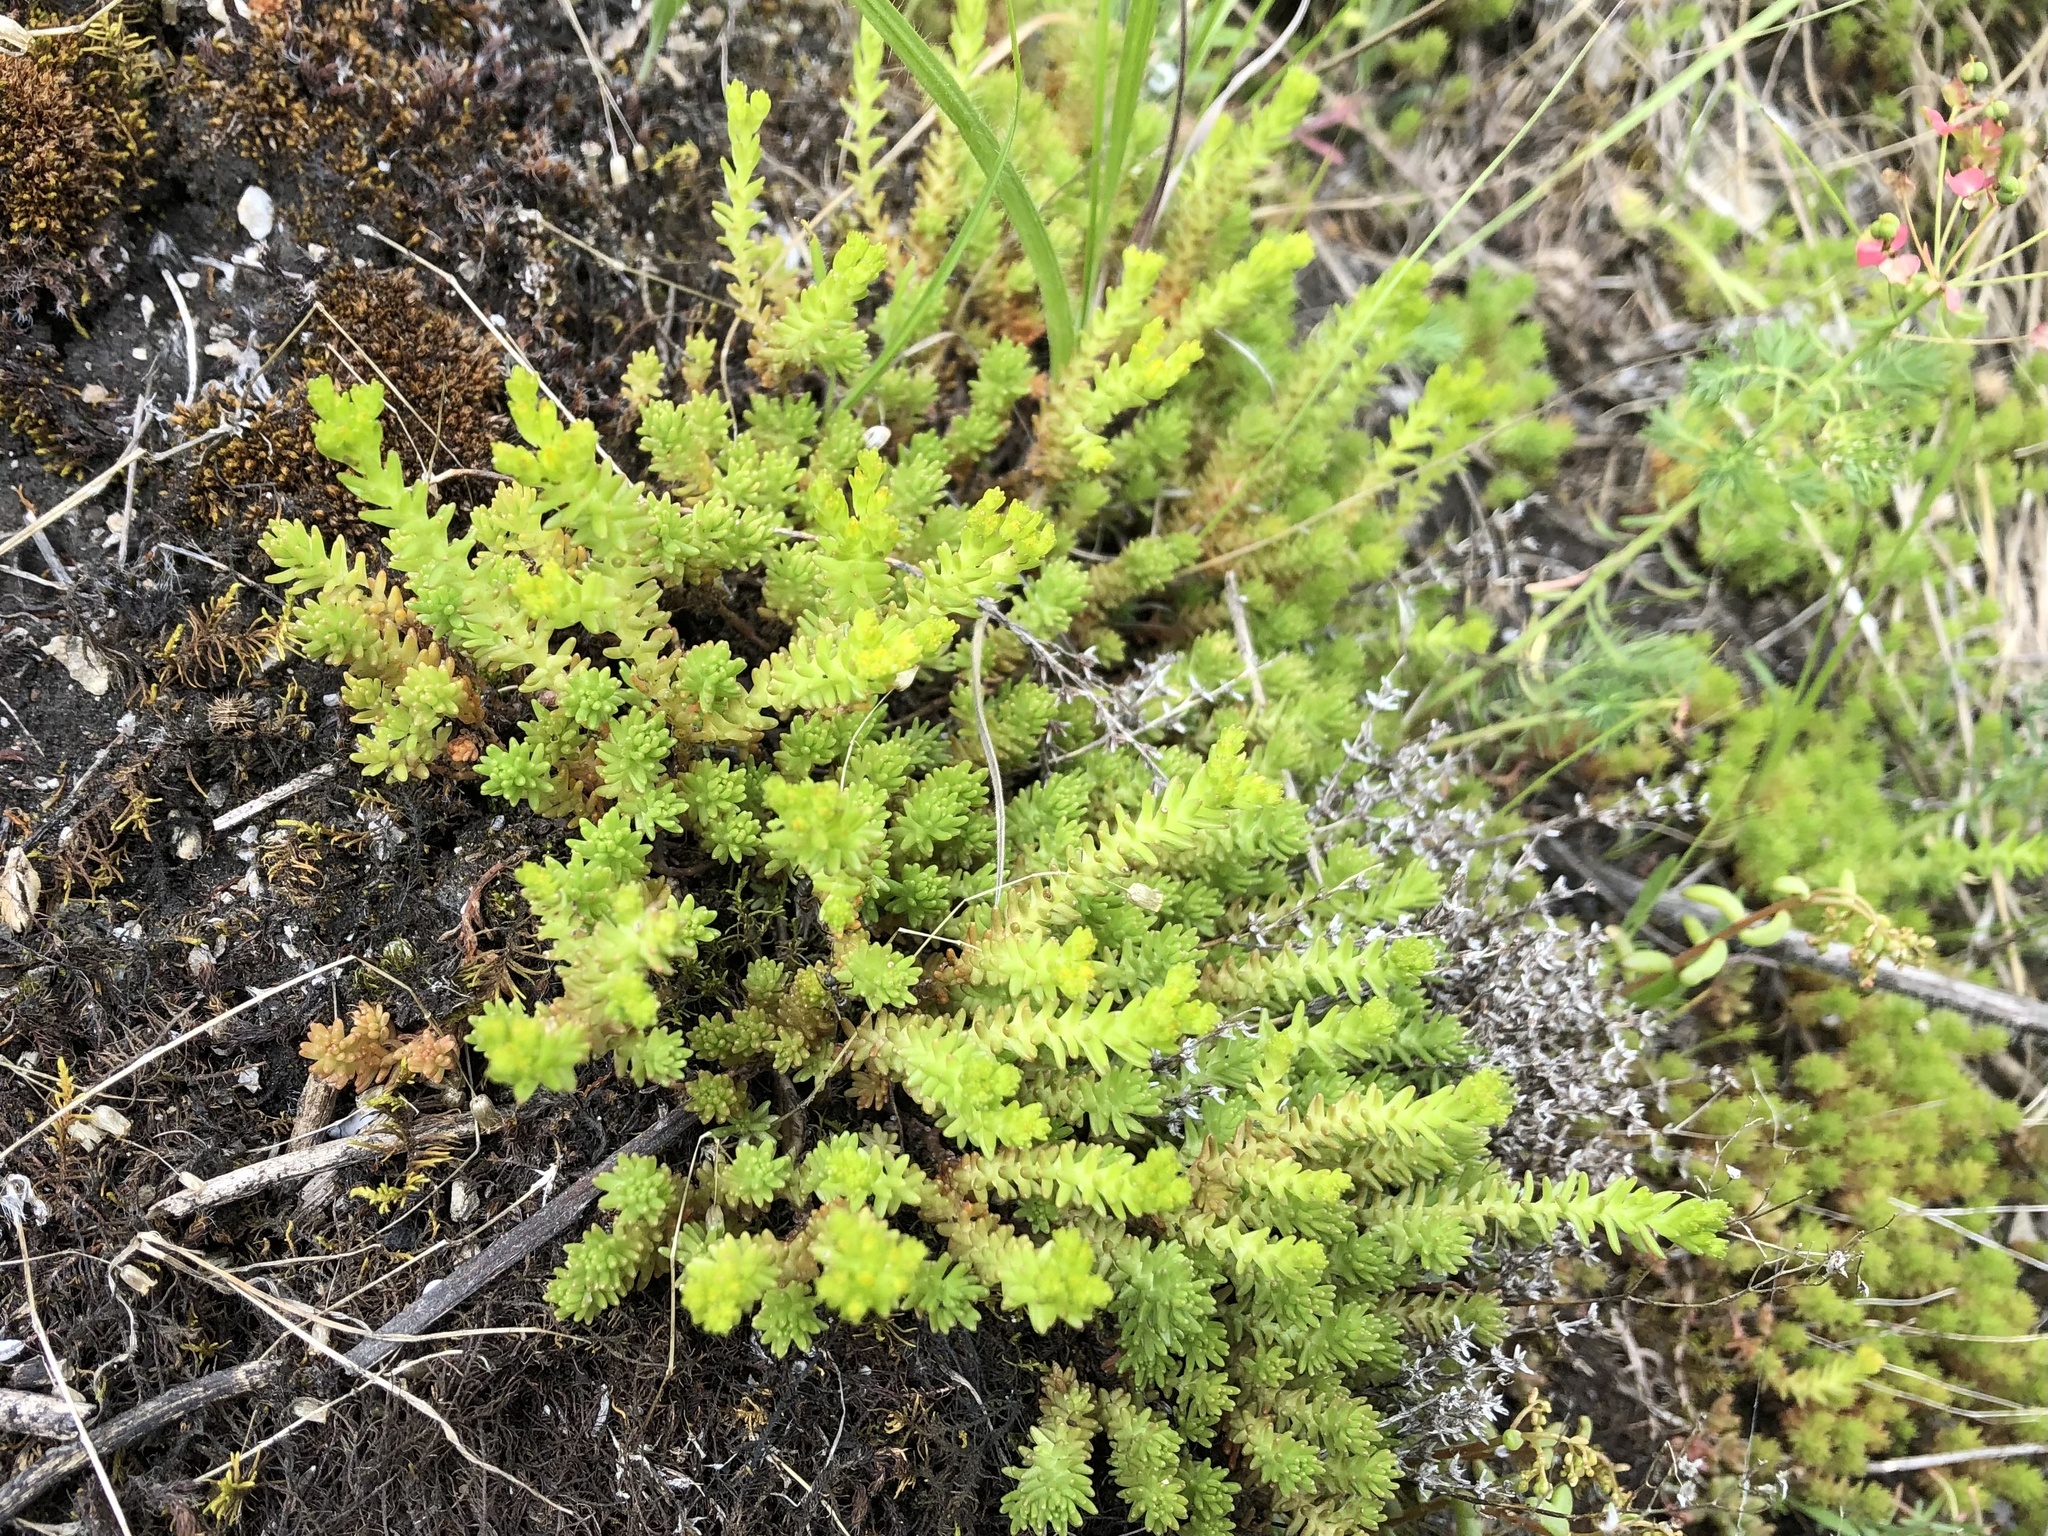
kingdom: Plantae
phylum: Tracheophyta
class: Magnoliopsida
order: Saxifragales
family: Crassulaceae
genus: Sedum
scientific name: Sedum sexangulare
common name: Tasteless stonecrop
